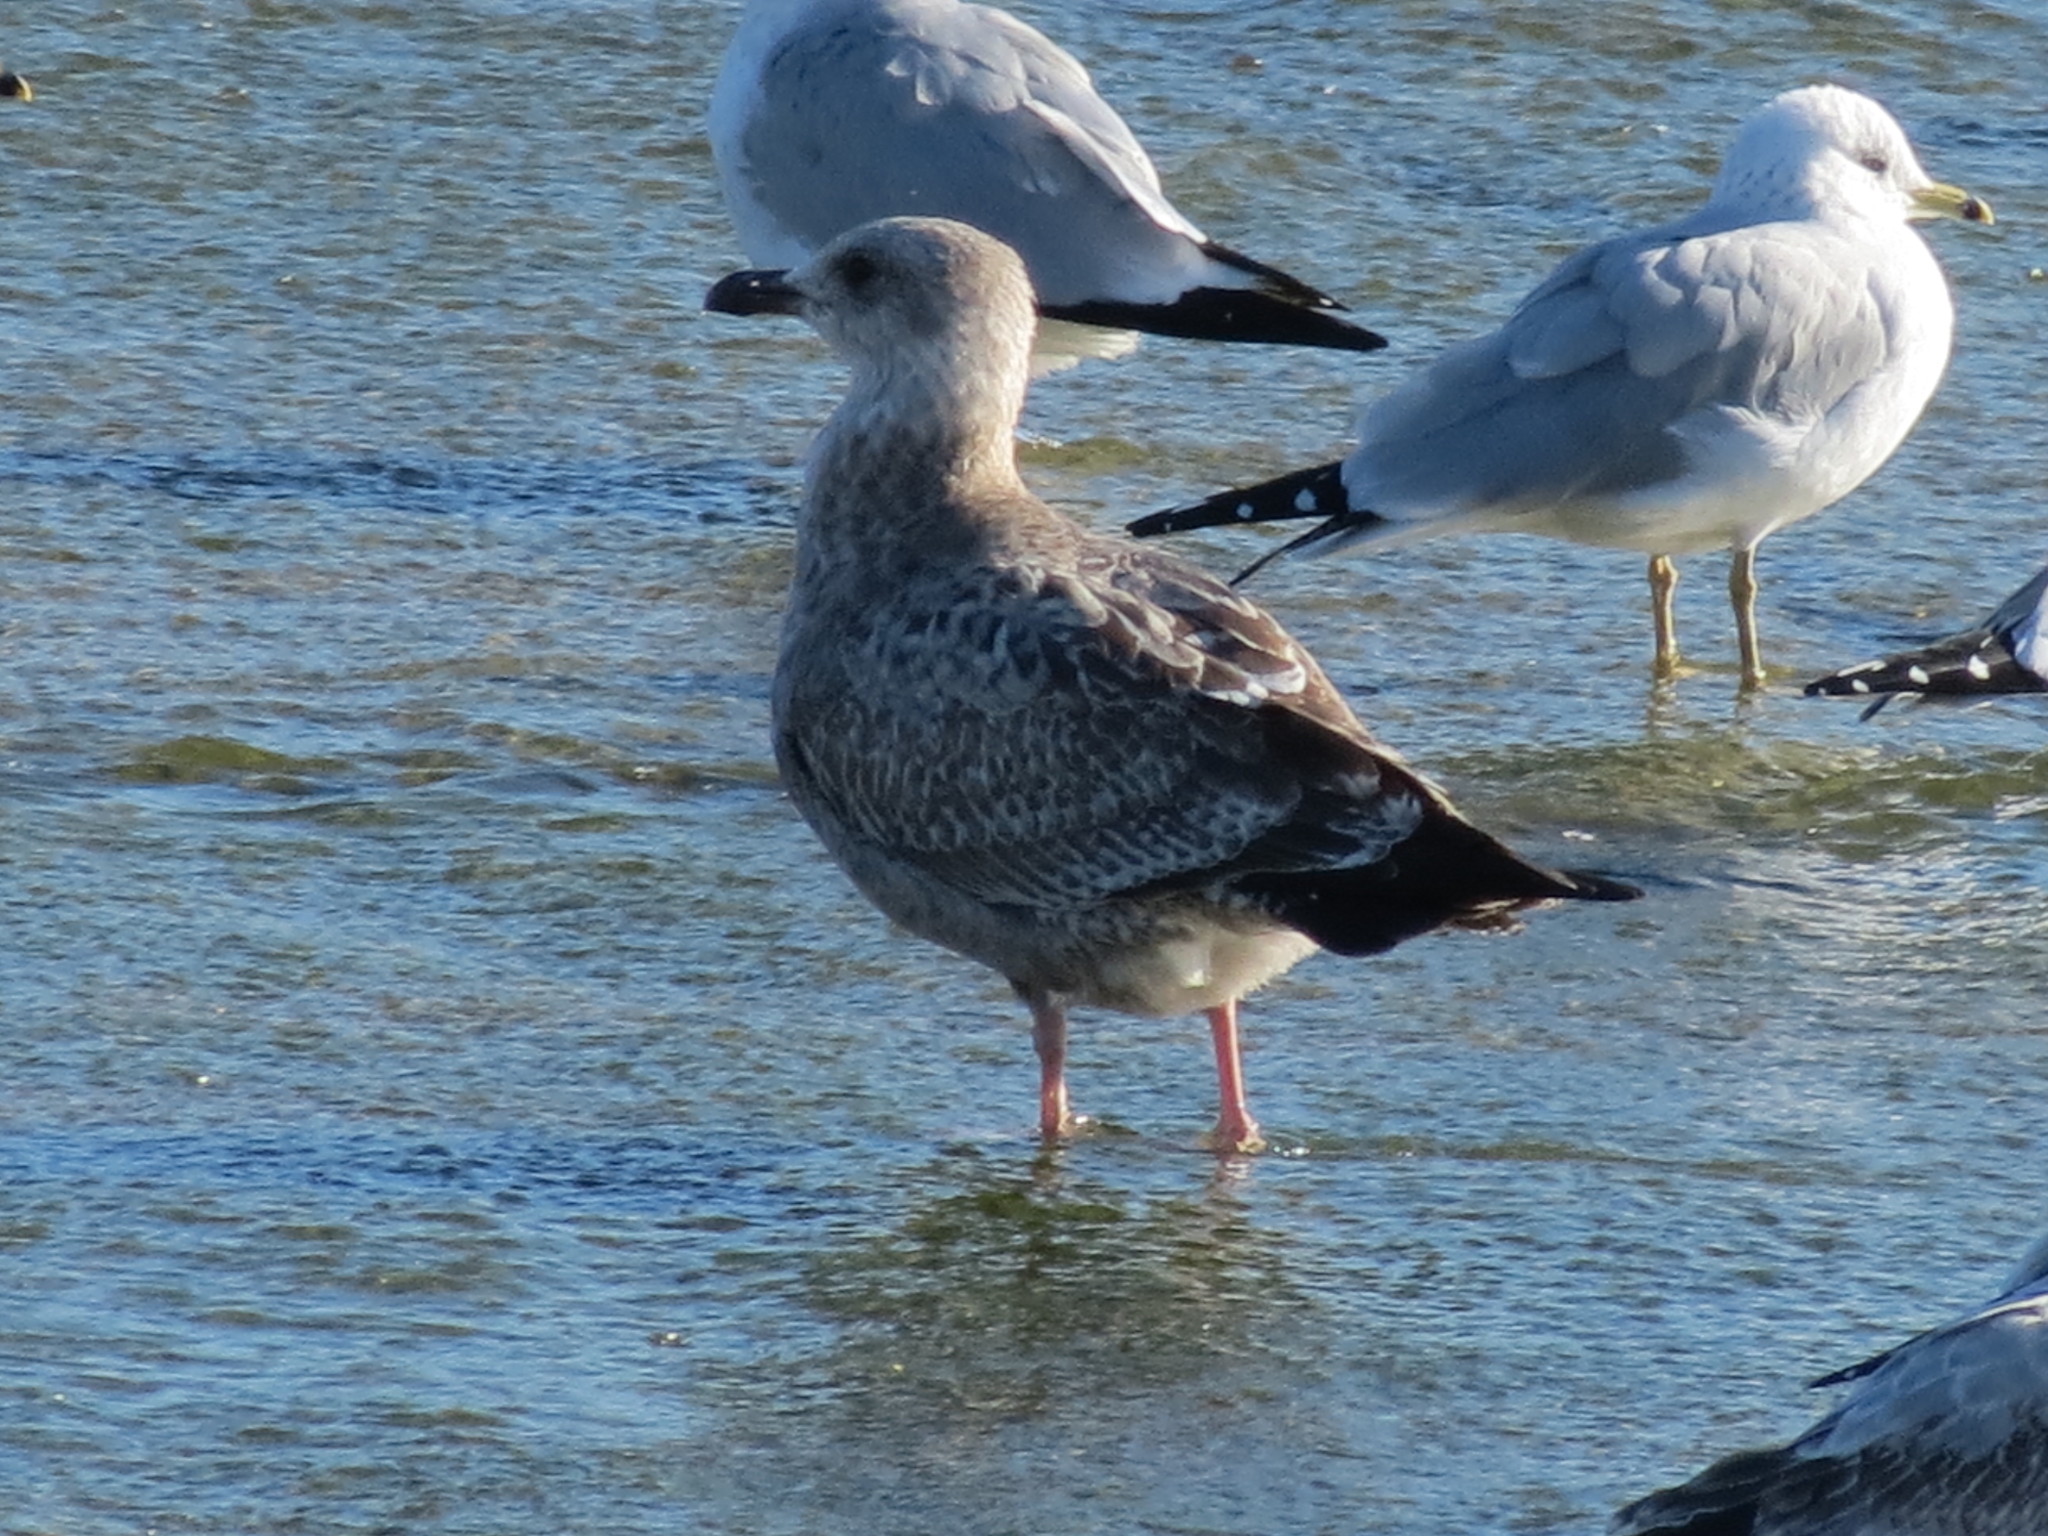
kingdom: Animalia
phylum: Chordata
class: Aves
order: Charadriiformes
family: Laridae
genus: Larus
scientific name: Larus argentatus
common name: Herring gull
